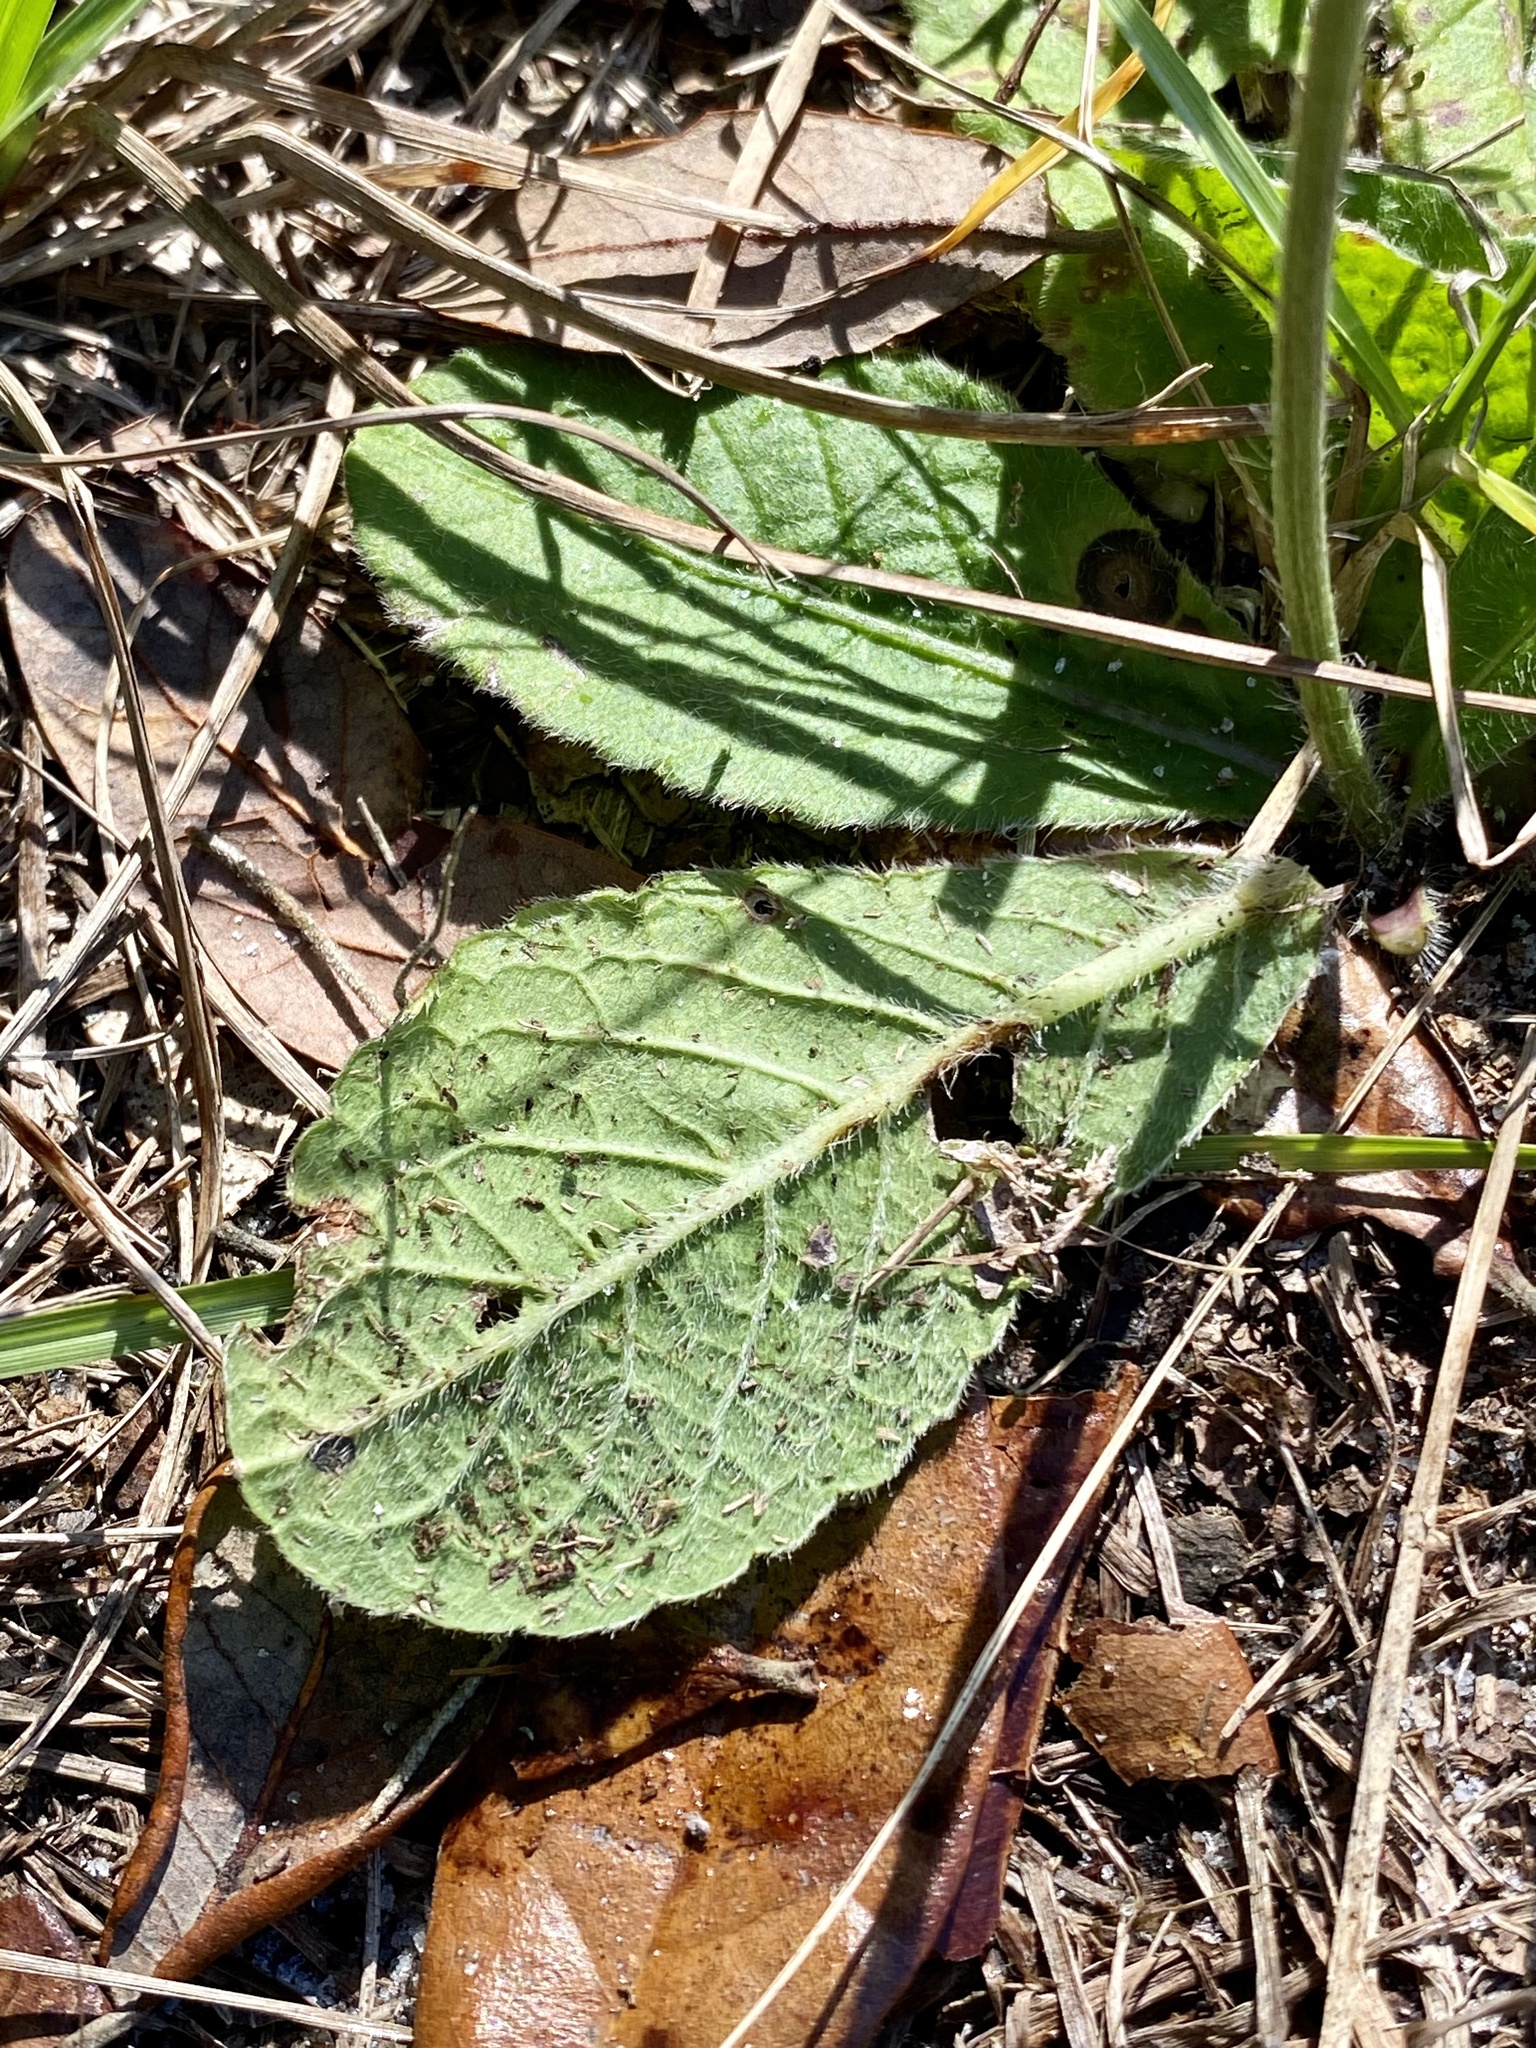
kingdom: Plantae
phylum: Tracheophyta
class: Magnoliopsida
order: Asterales
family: Asteraceae
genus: Elephantopus
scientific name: Elephantopus elatus
